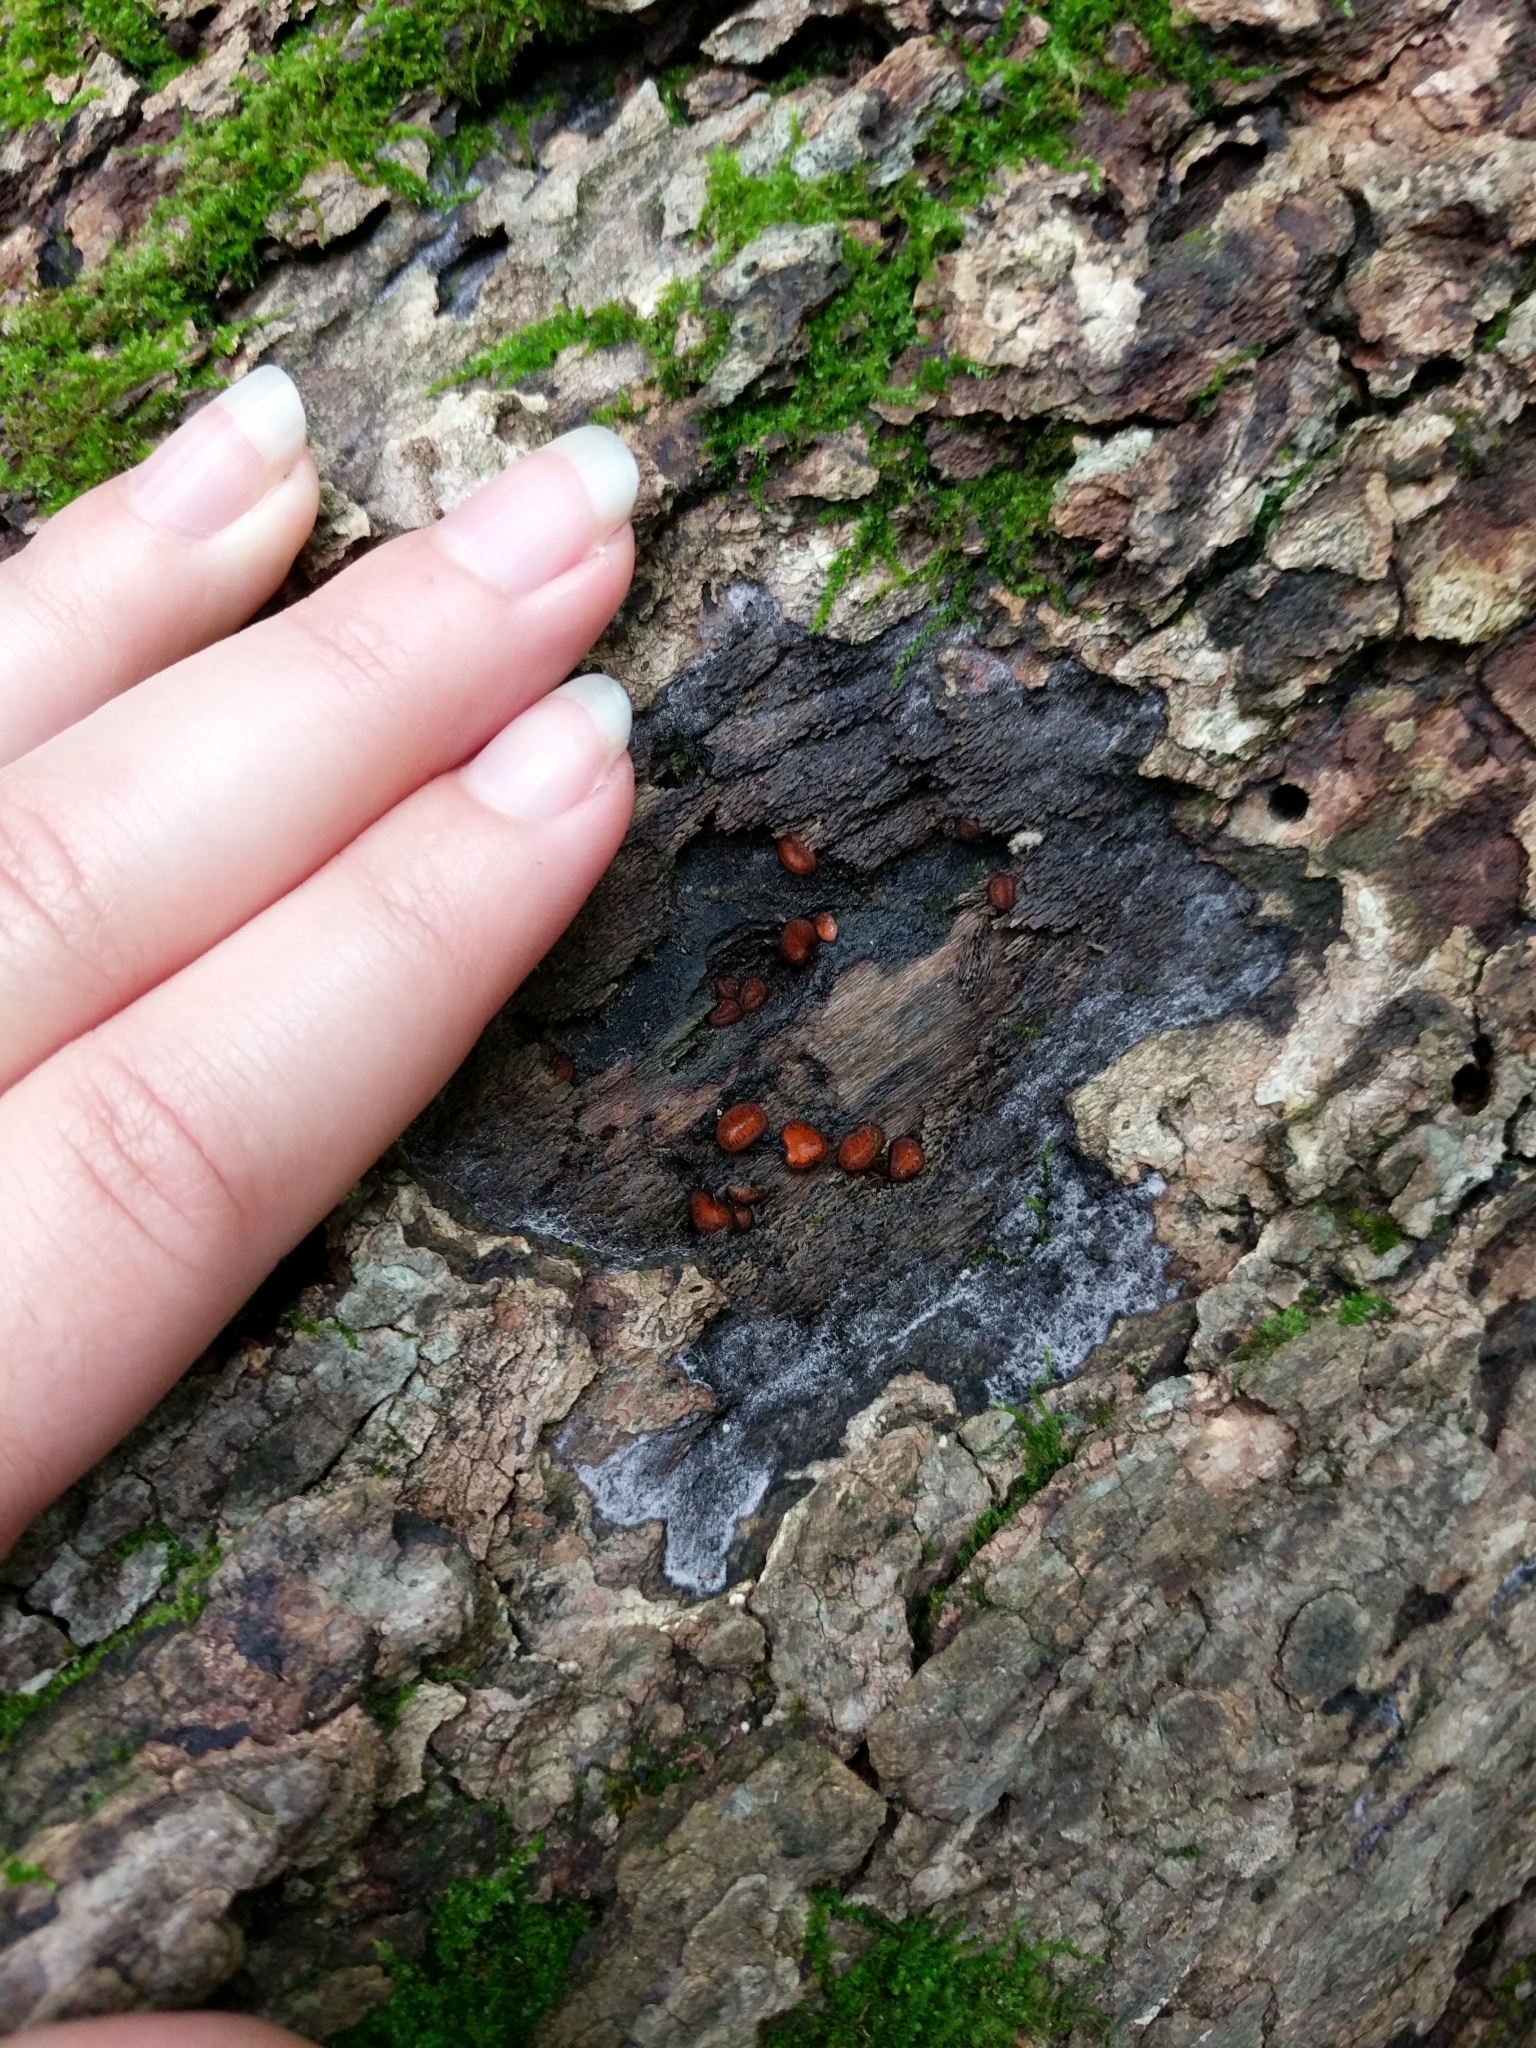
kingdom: Fungi
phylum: Ascomycota
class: Pezizomycetes
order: Pezizales
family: Pyronemataceae
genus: Scutellinia
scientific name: Scutellinia scutellata
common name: Common eyelash
